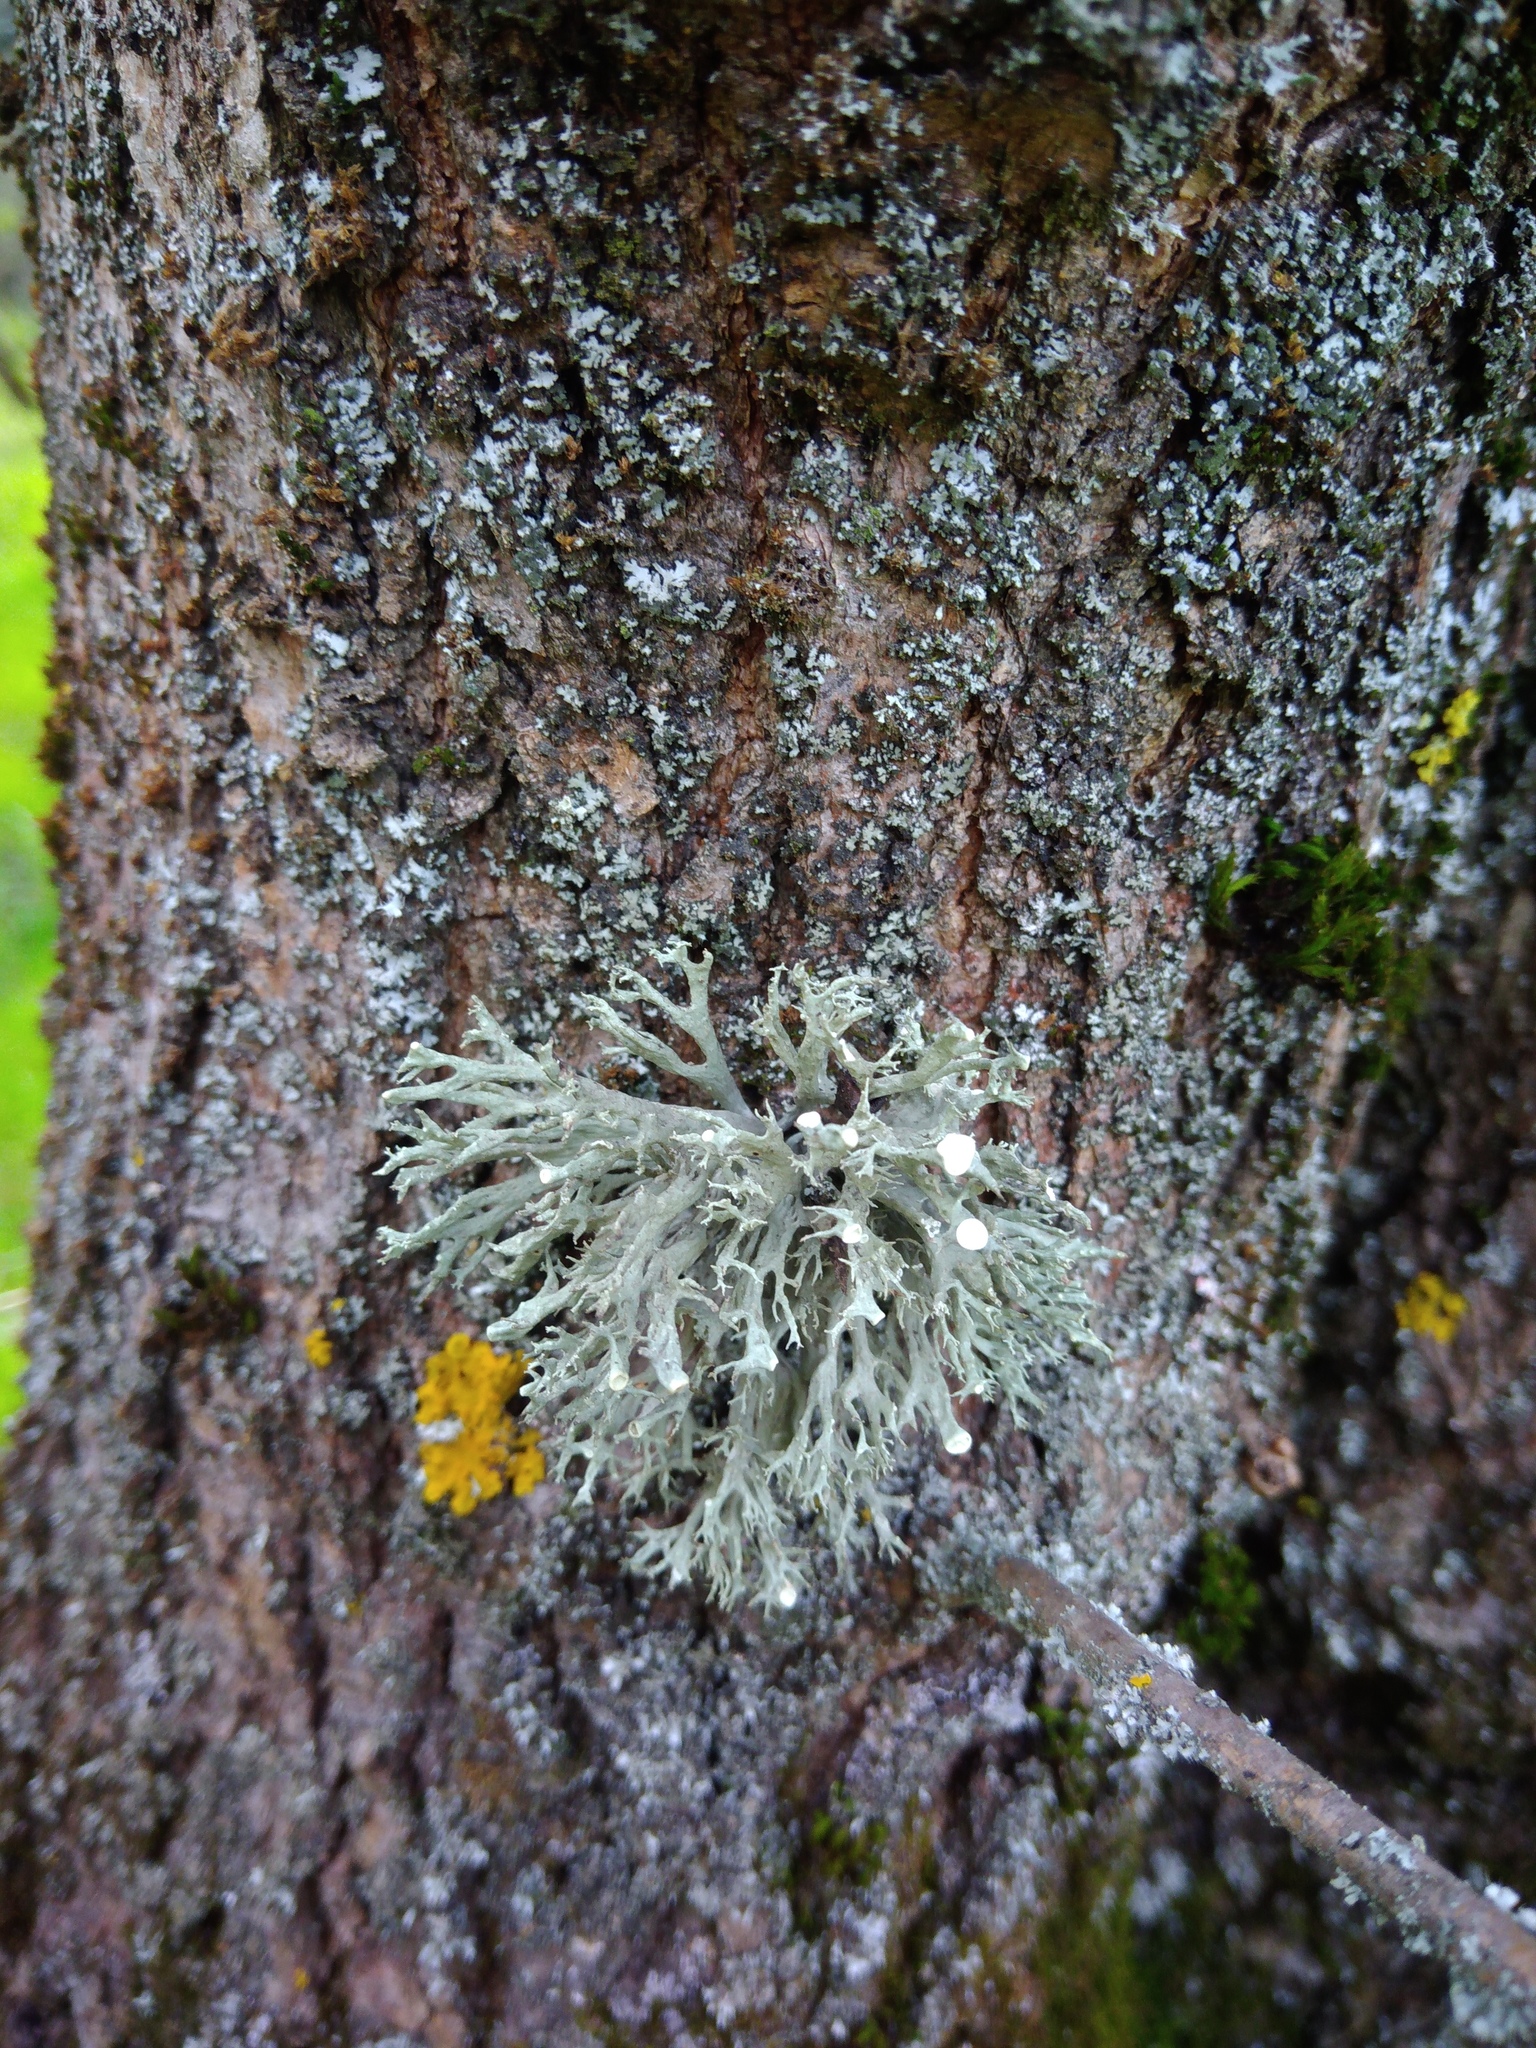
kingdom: Fungi
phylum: Ascomycota
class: Lecanoromycetes
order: Lecanorales
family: Ramalinaceae
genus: Ramalina
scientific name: Ramalina fastigiata
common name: Dotted ribbon lichen
